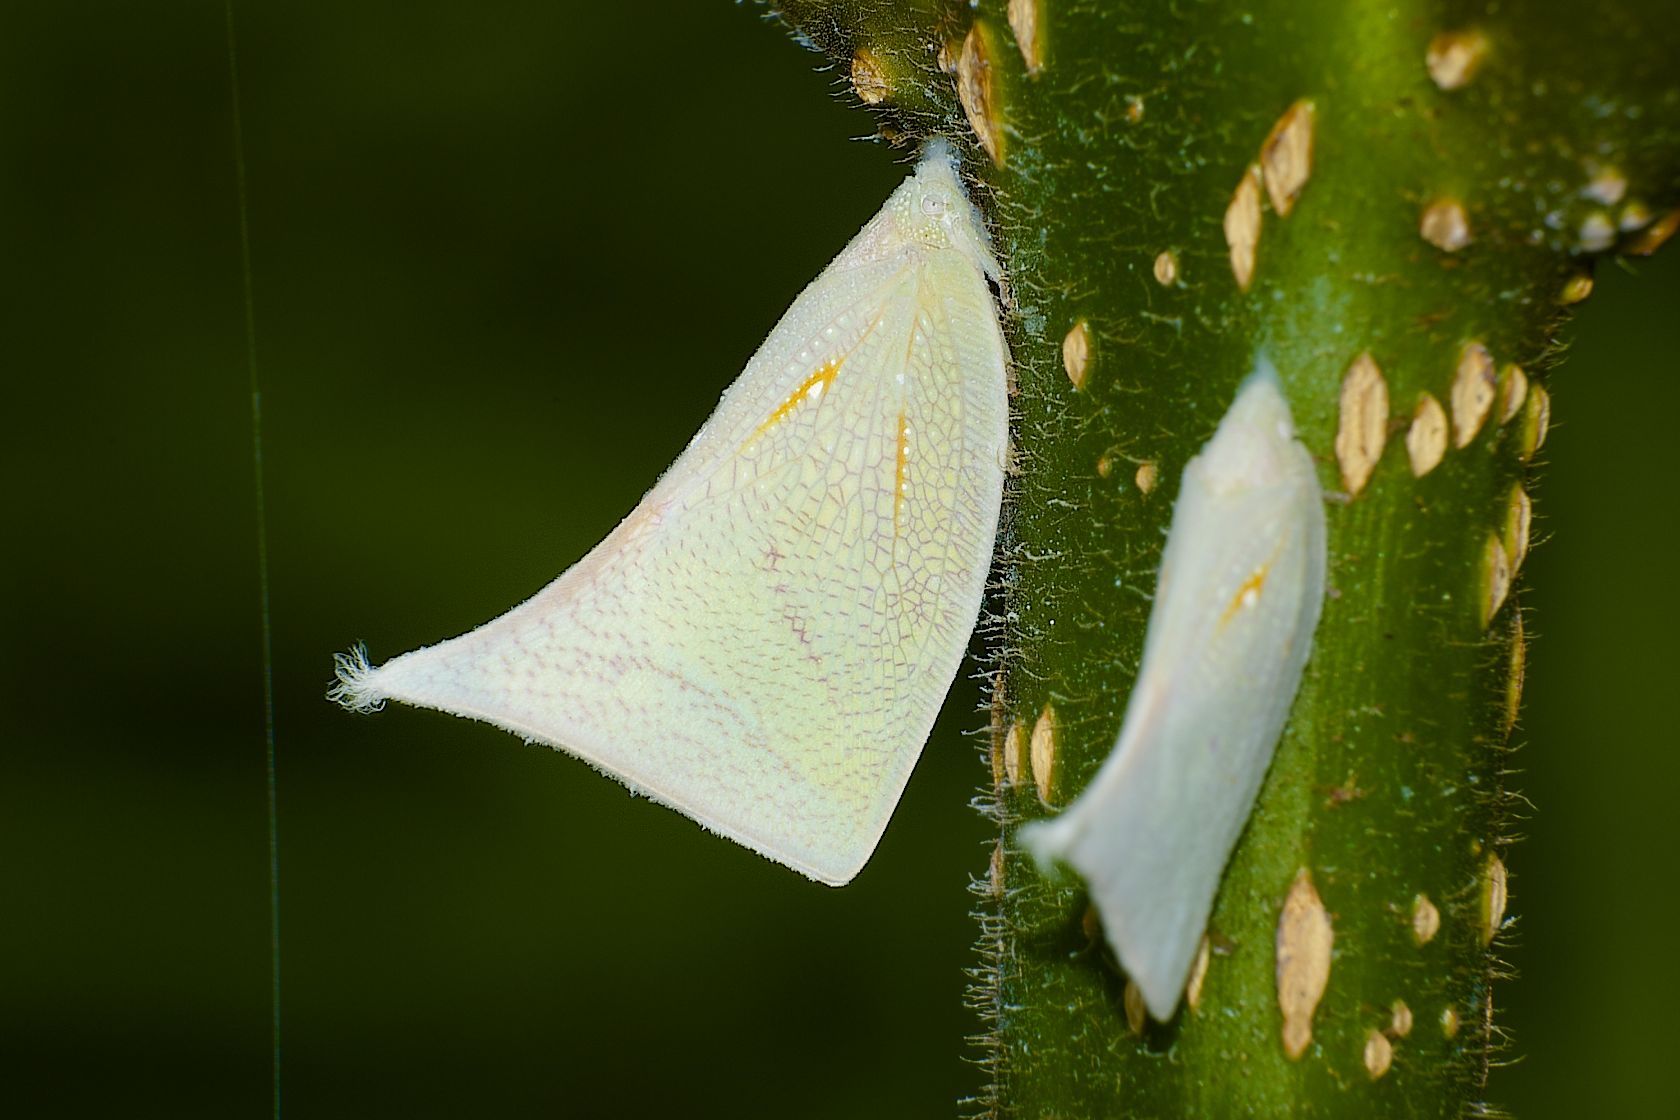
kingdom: Animalia
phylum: Arthropoda
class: Insecta
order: Hemiptera
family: Flatidae
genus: Lawana
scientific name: Lawana imitata
